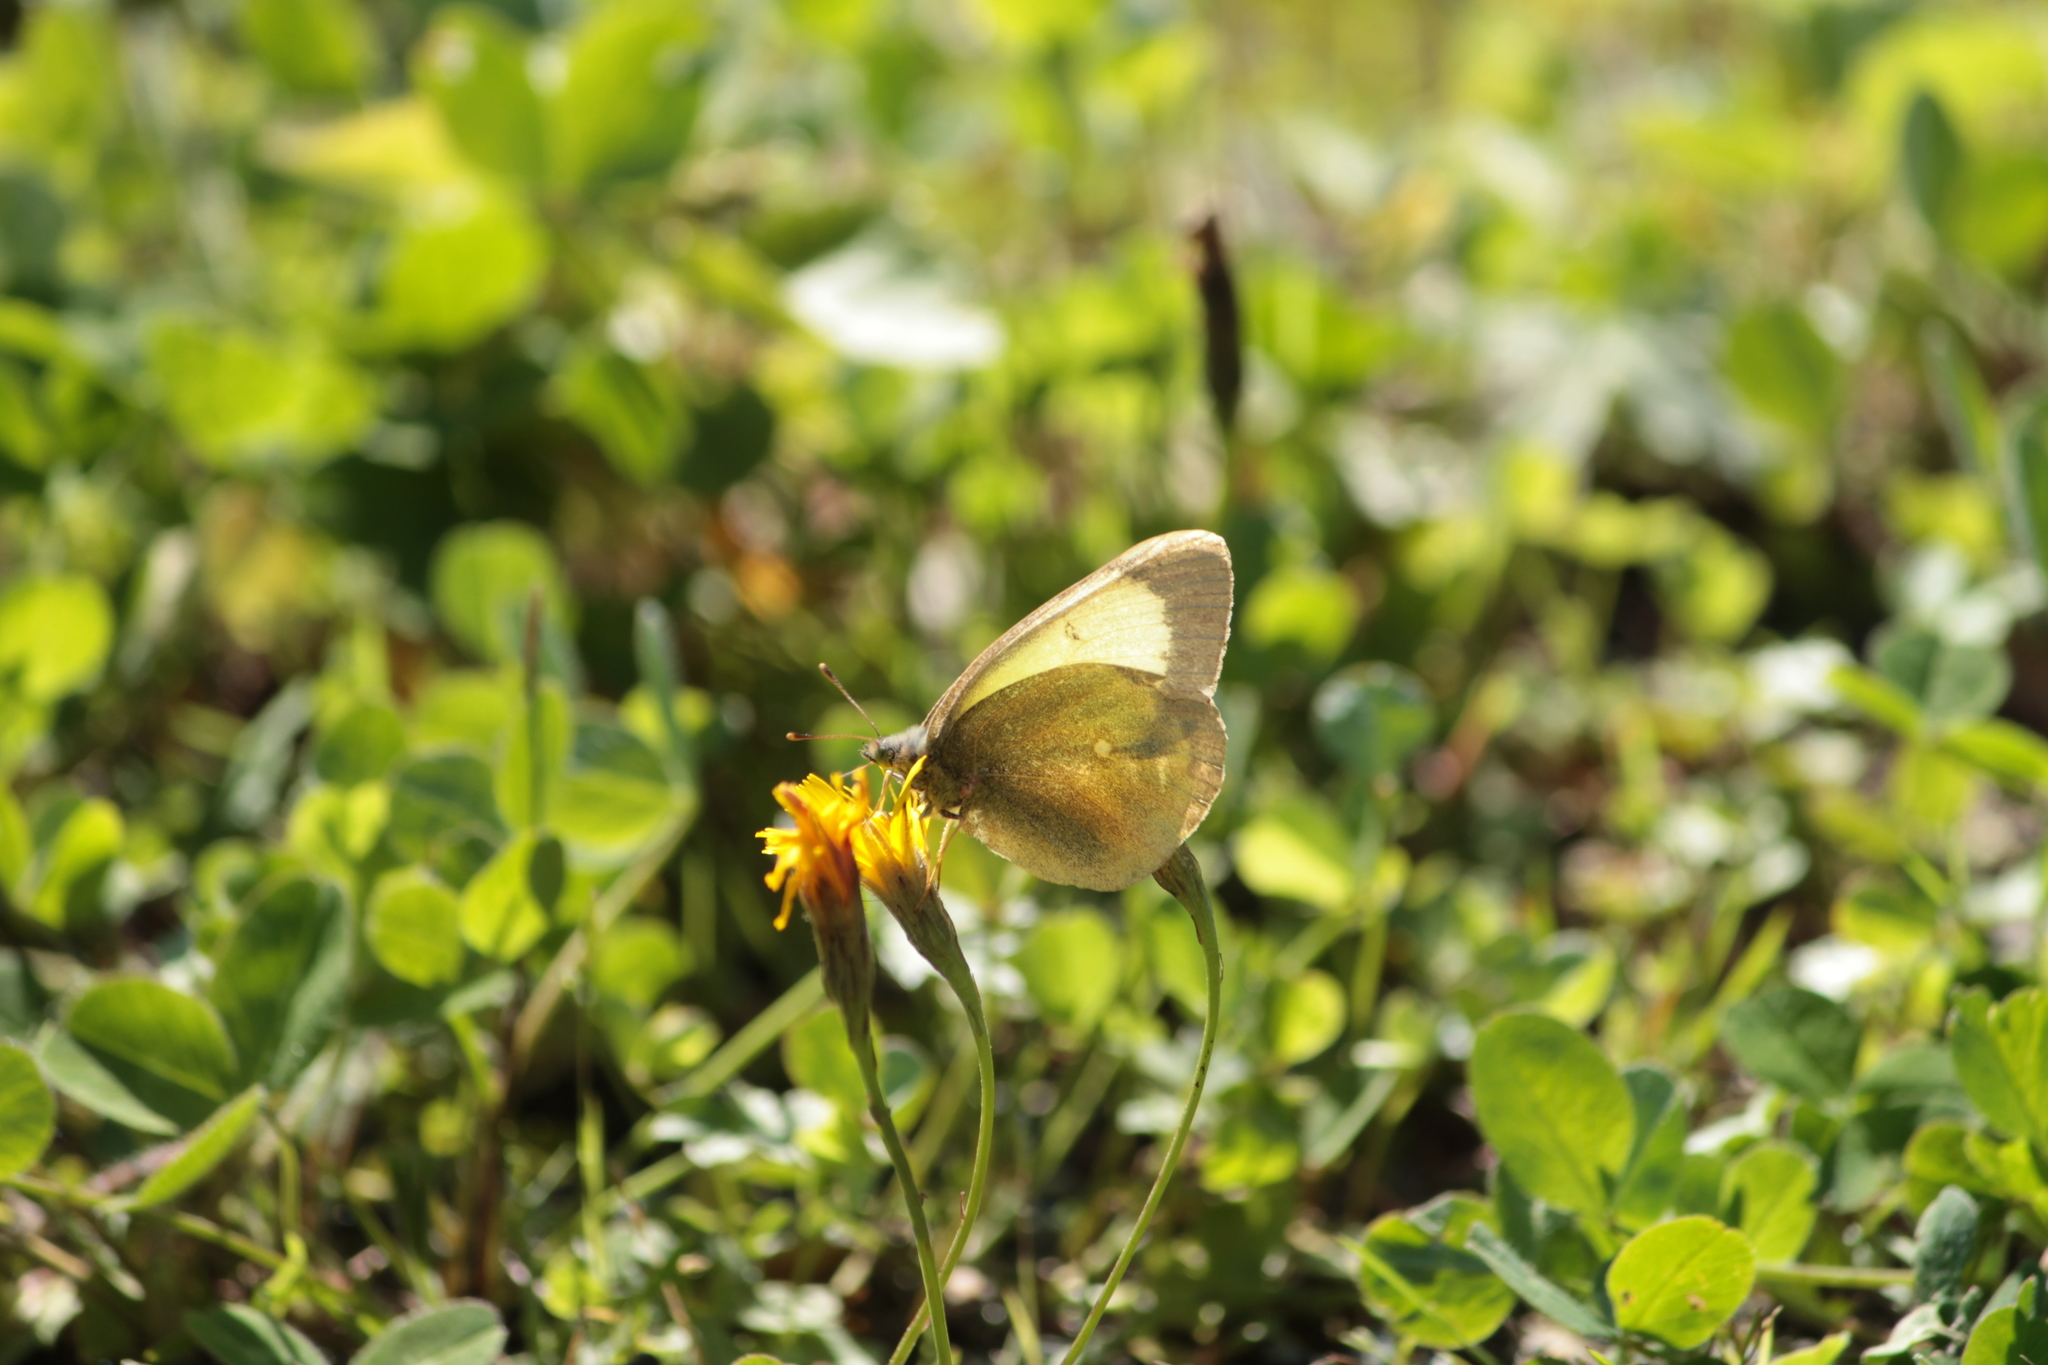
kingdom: Animalia
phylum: Arthropoda
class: Insecta
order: Lepidoptera
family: Pieridae
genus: Colias
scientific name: Colias palaeno
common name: Moorland clouded yellow
